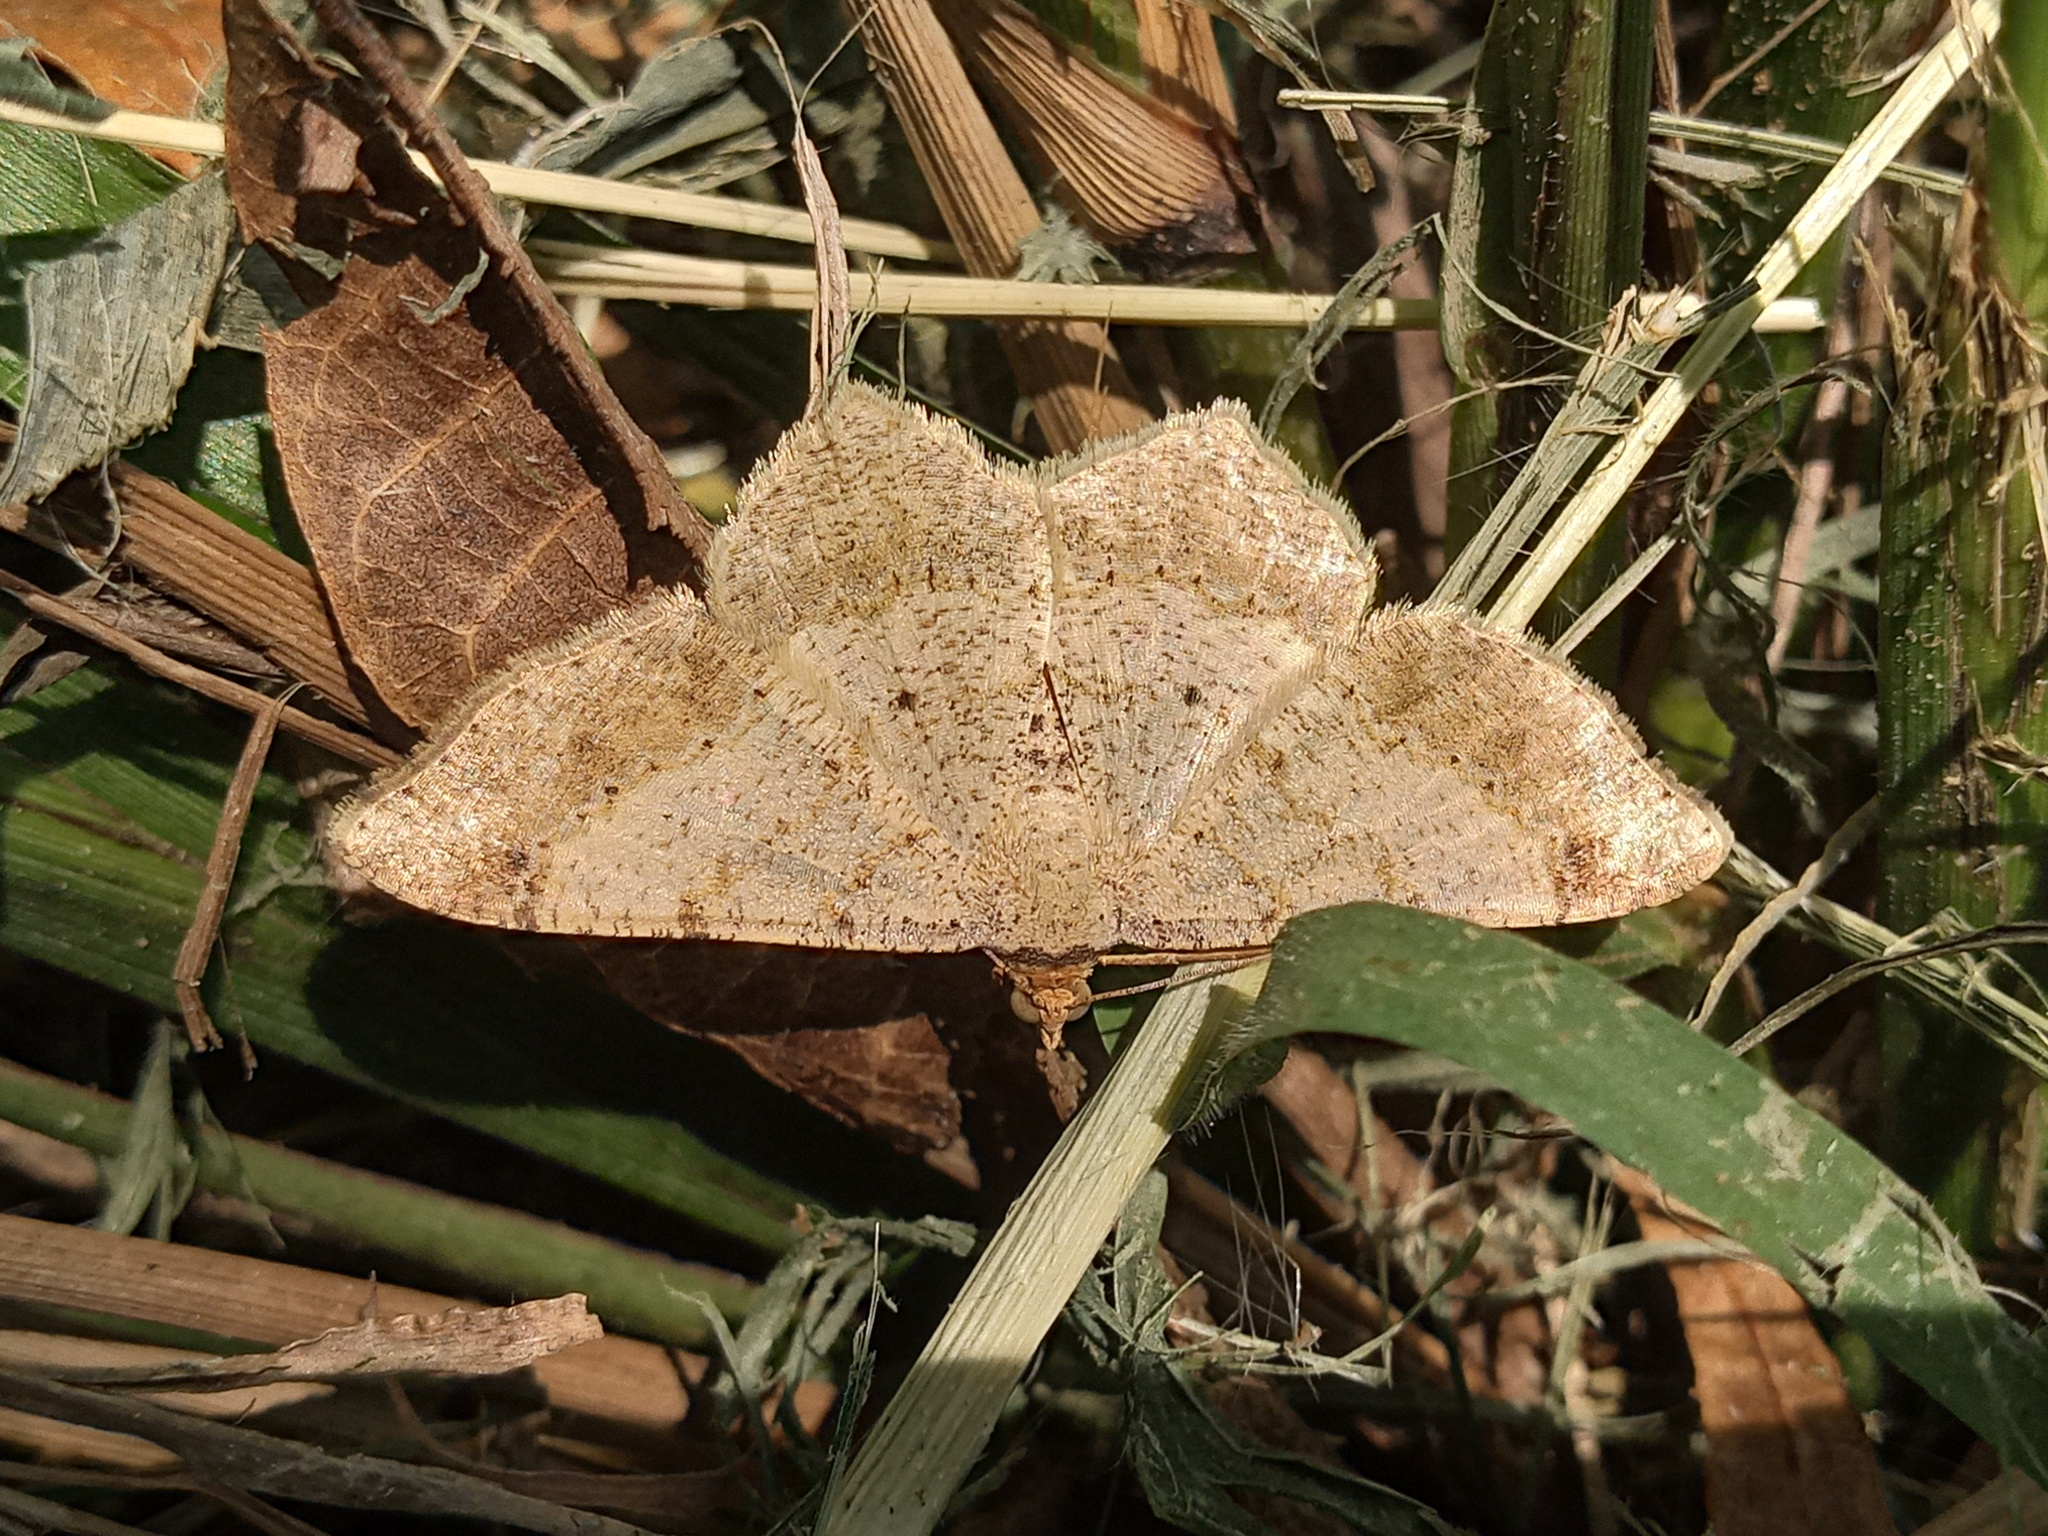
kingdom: Animalia
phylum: Arthropoda
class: Insecta
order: Lepidoptera
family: Geometridae
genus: Macaria
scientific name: Macaria abydata
